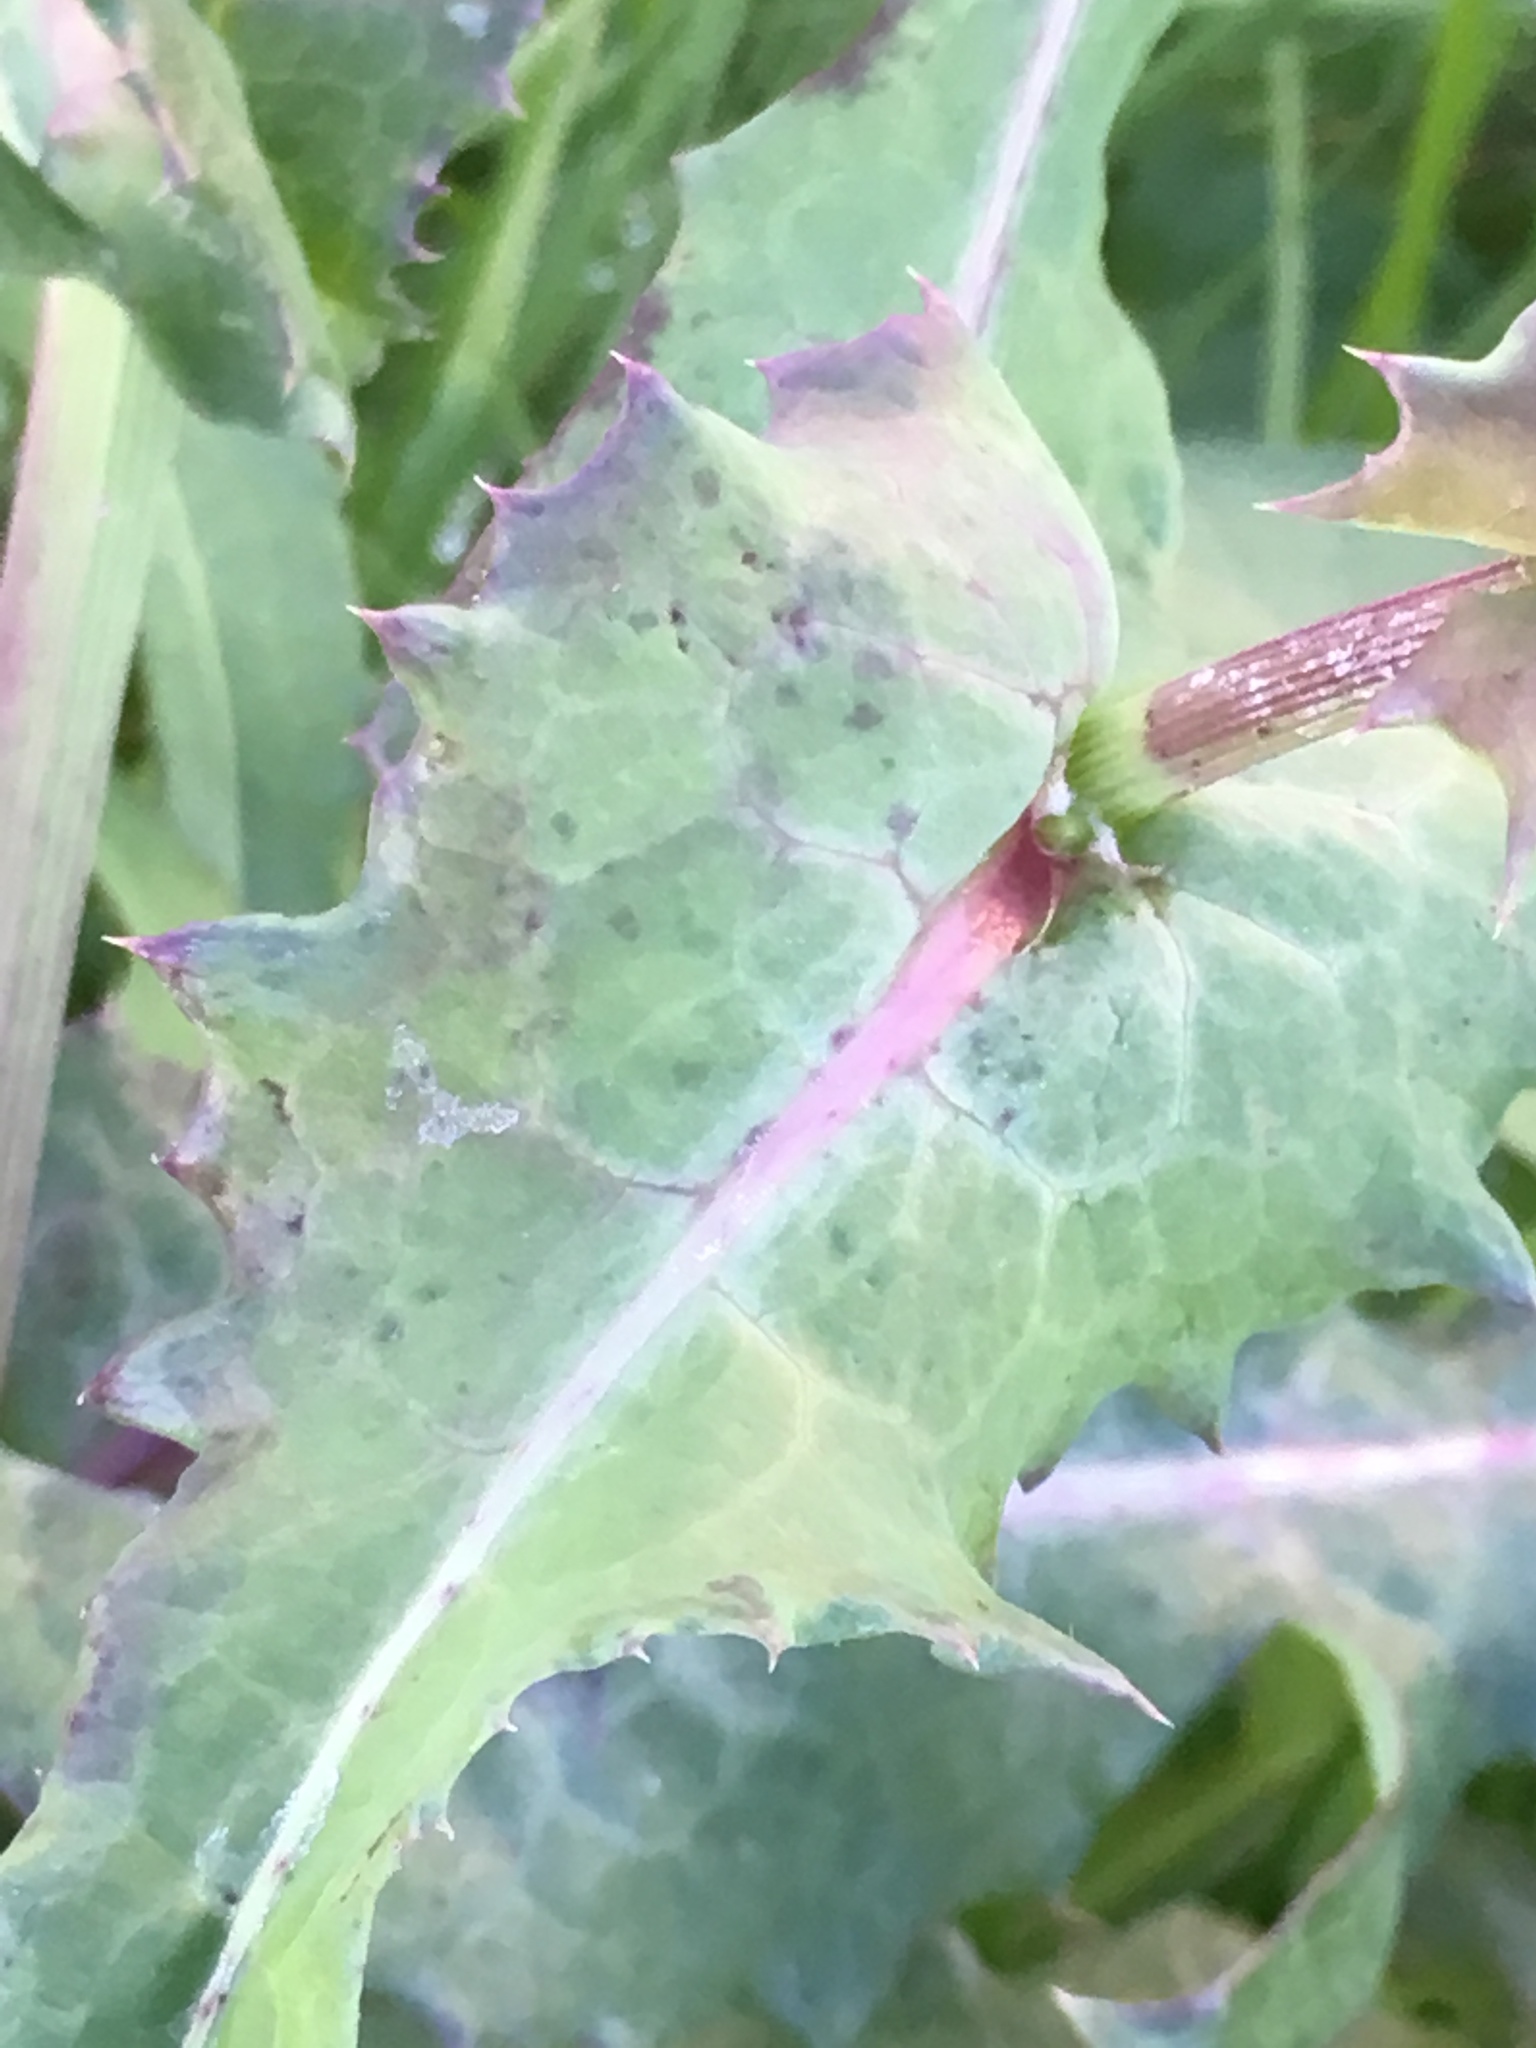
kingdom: Plantae
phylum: Tracheophyta
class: Magnoliopsida
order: Asterales
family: Asteraceae
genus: Sonchus
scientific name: Sonchus oleraceus
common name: Common sowthistle
